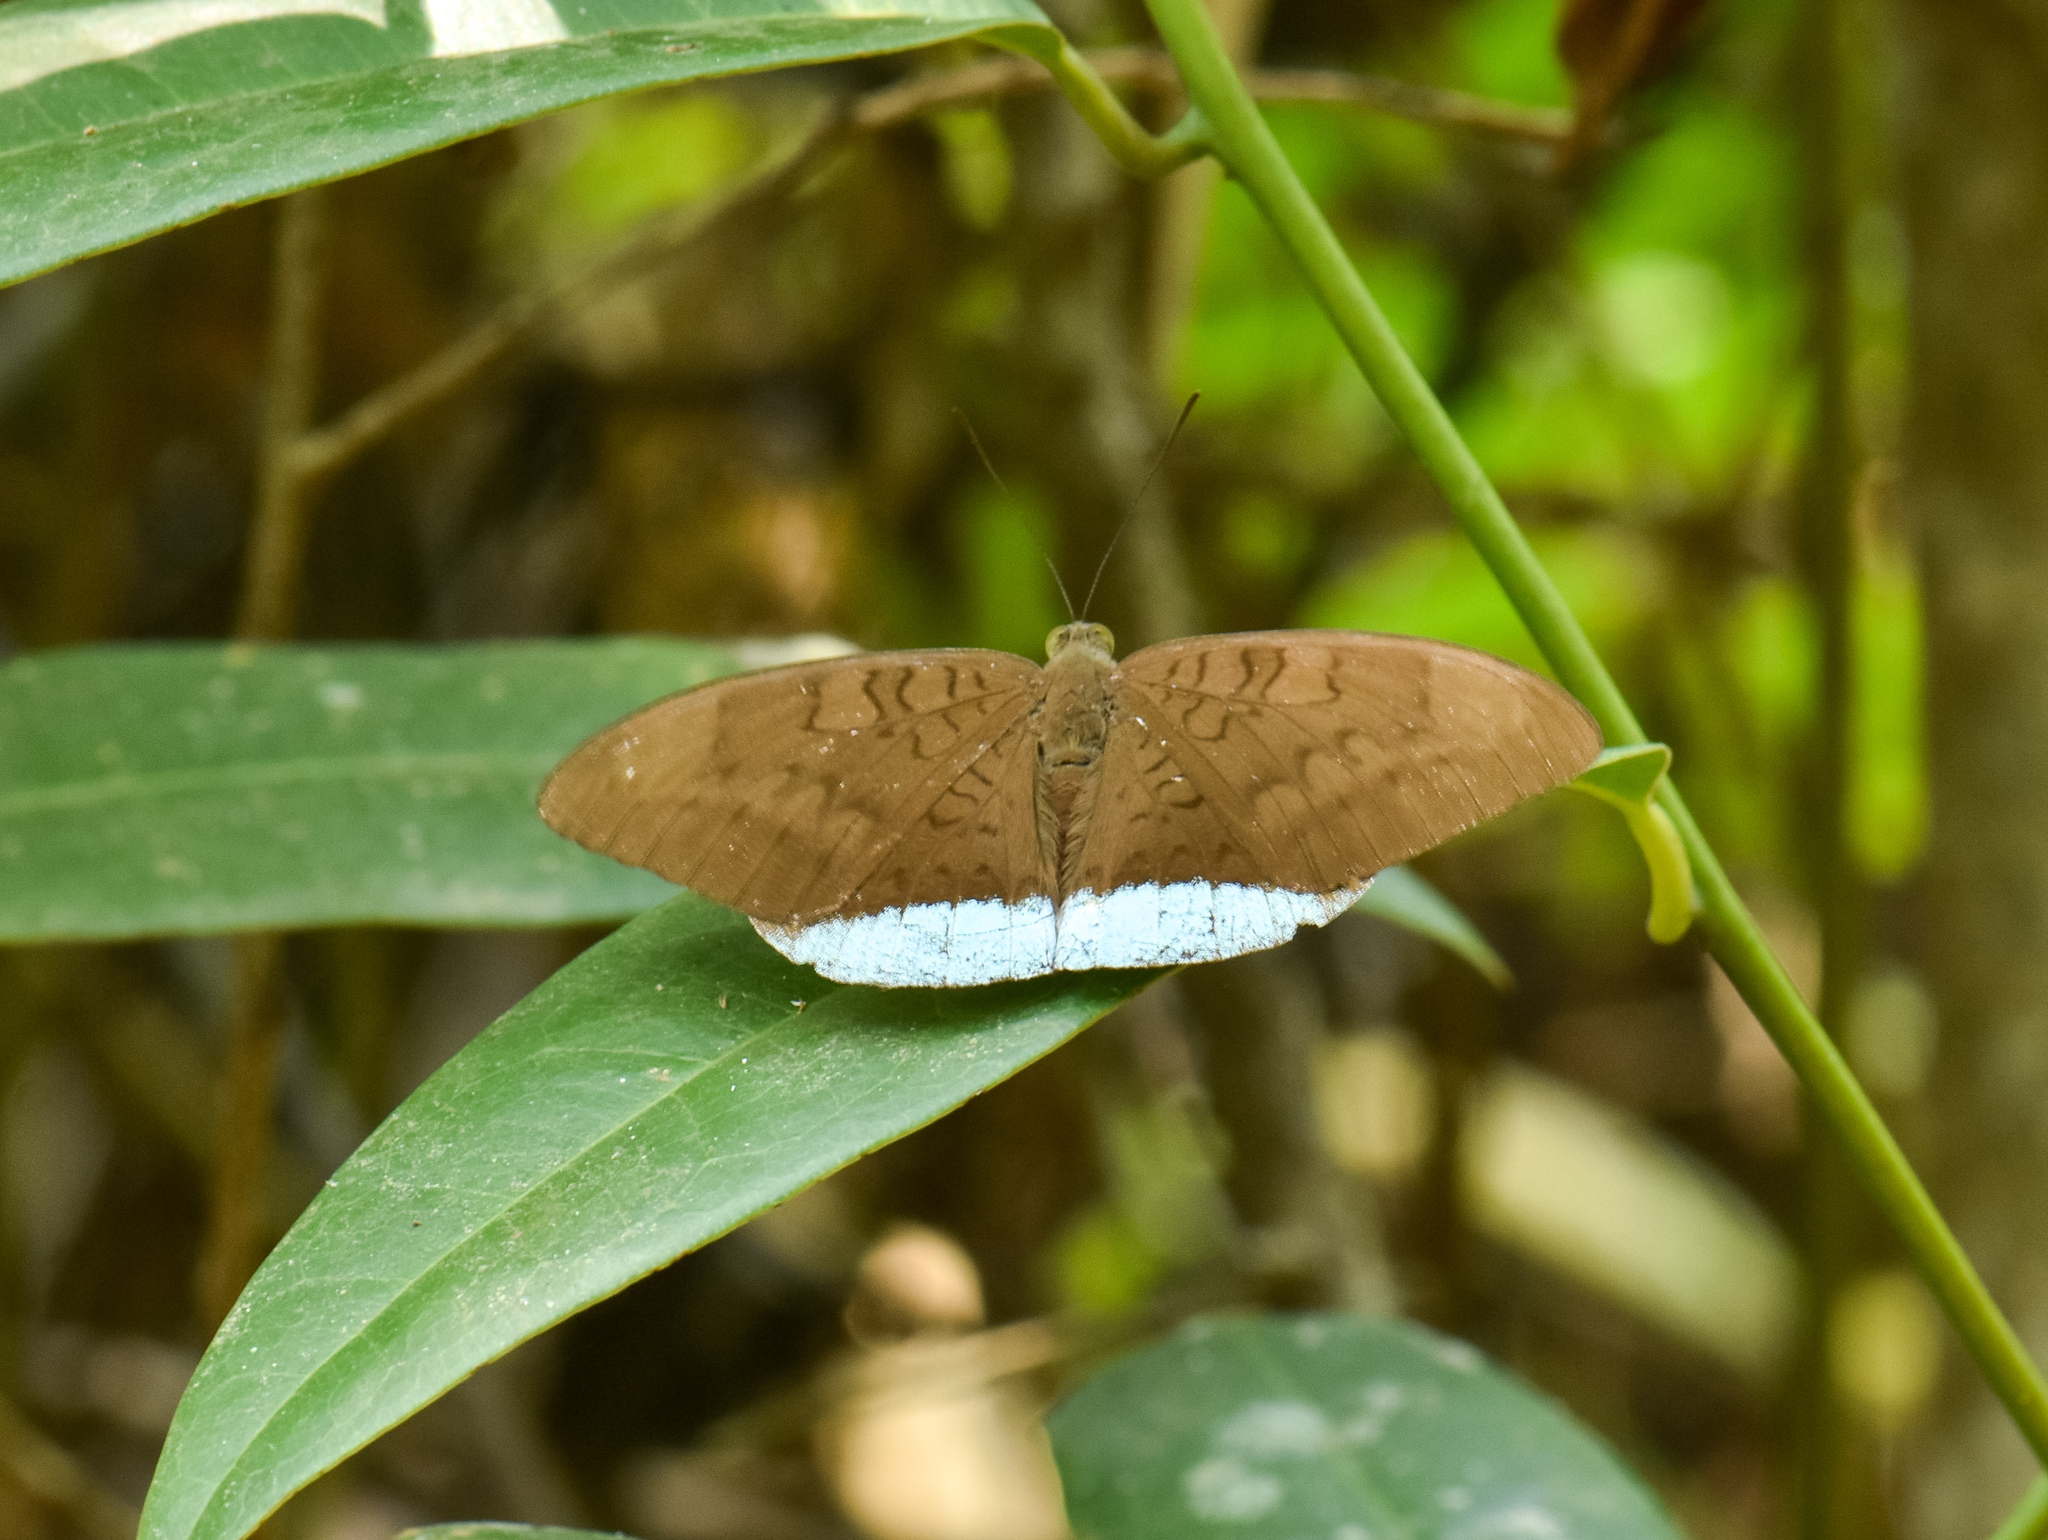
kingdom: Animalia
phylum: Arthropoda
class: Insecta
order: Lepidoptera
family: Nymphalidae
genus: Tanaecia
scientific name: Tanaecia julii
